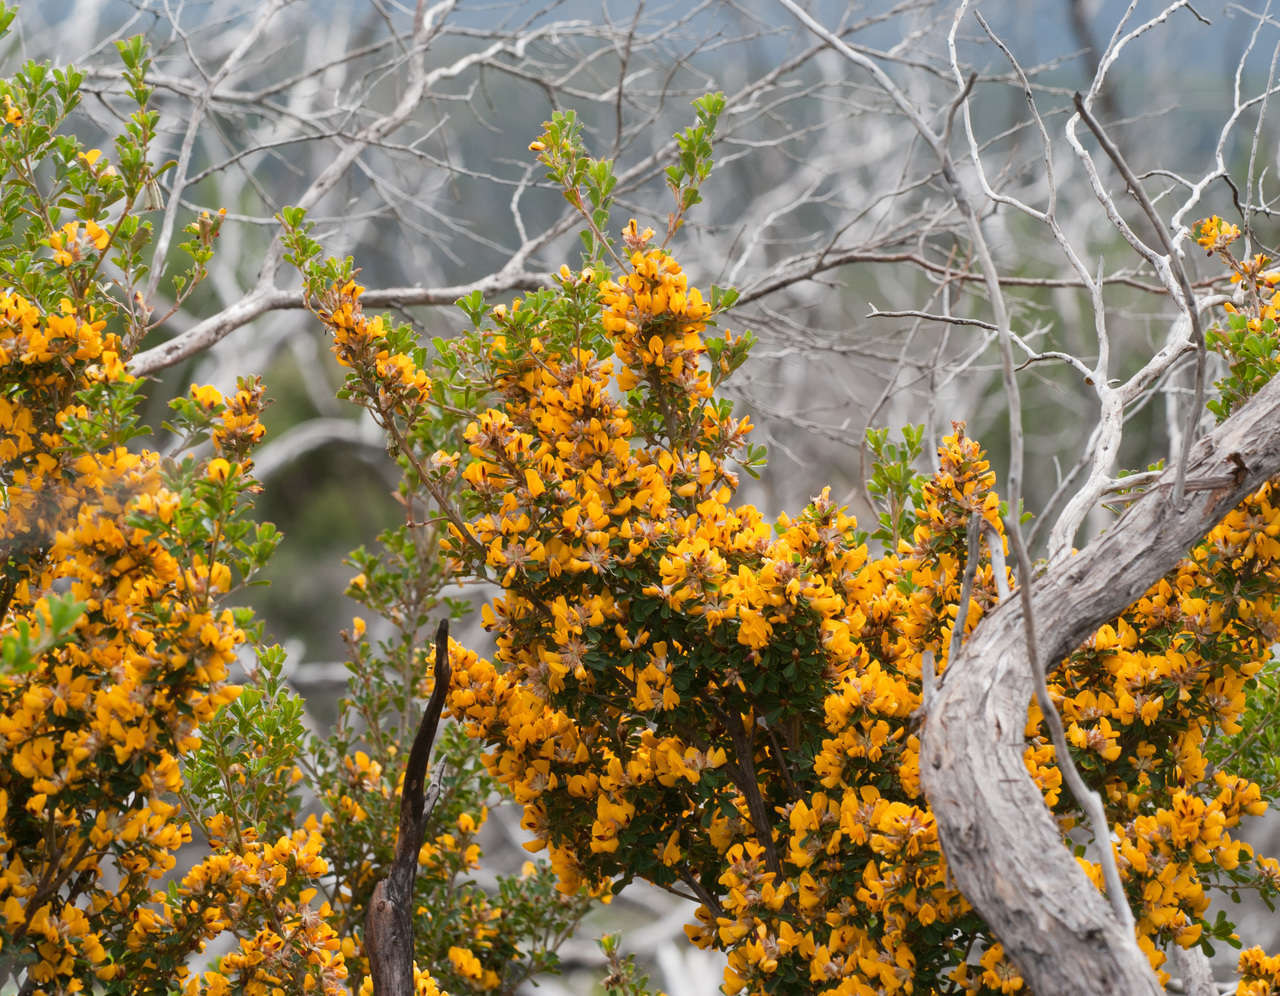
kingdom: Plantae
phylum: Tracheophyta
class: Magnoliopsida
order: Fabales
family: Fabaceae
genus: Pultenaea
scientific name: Pultenaea daphnoides
